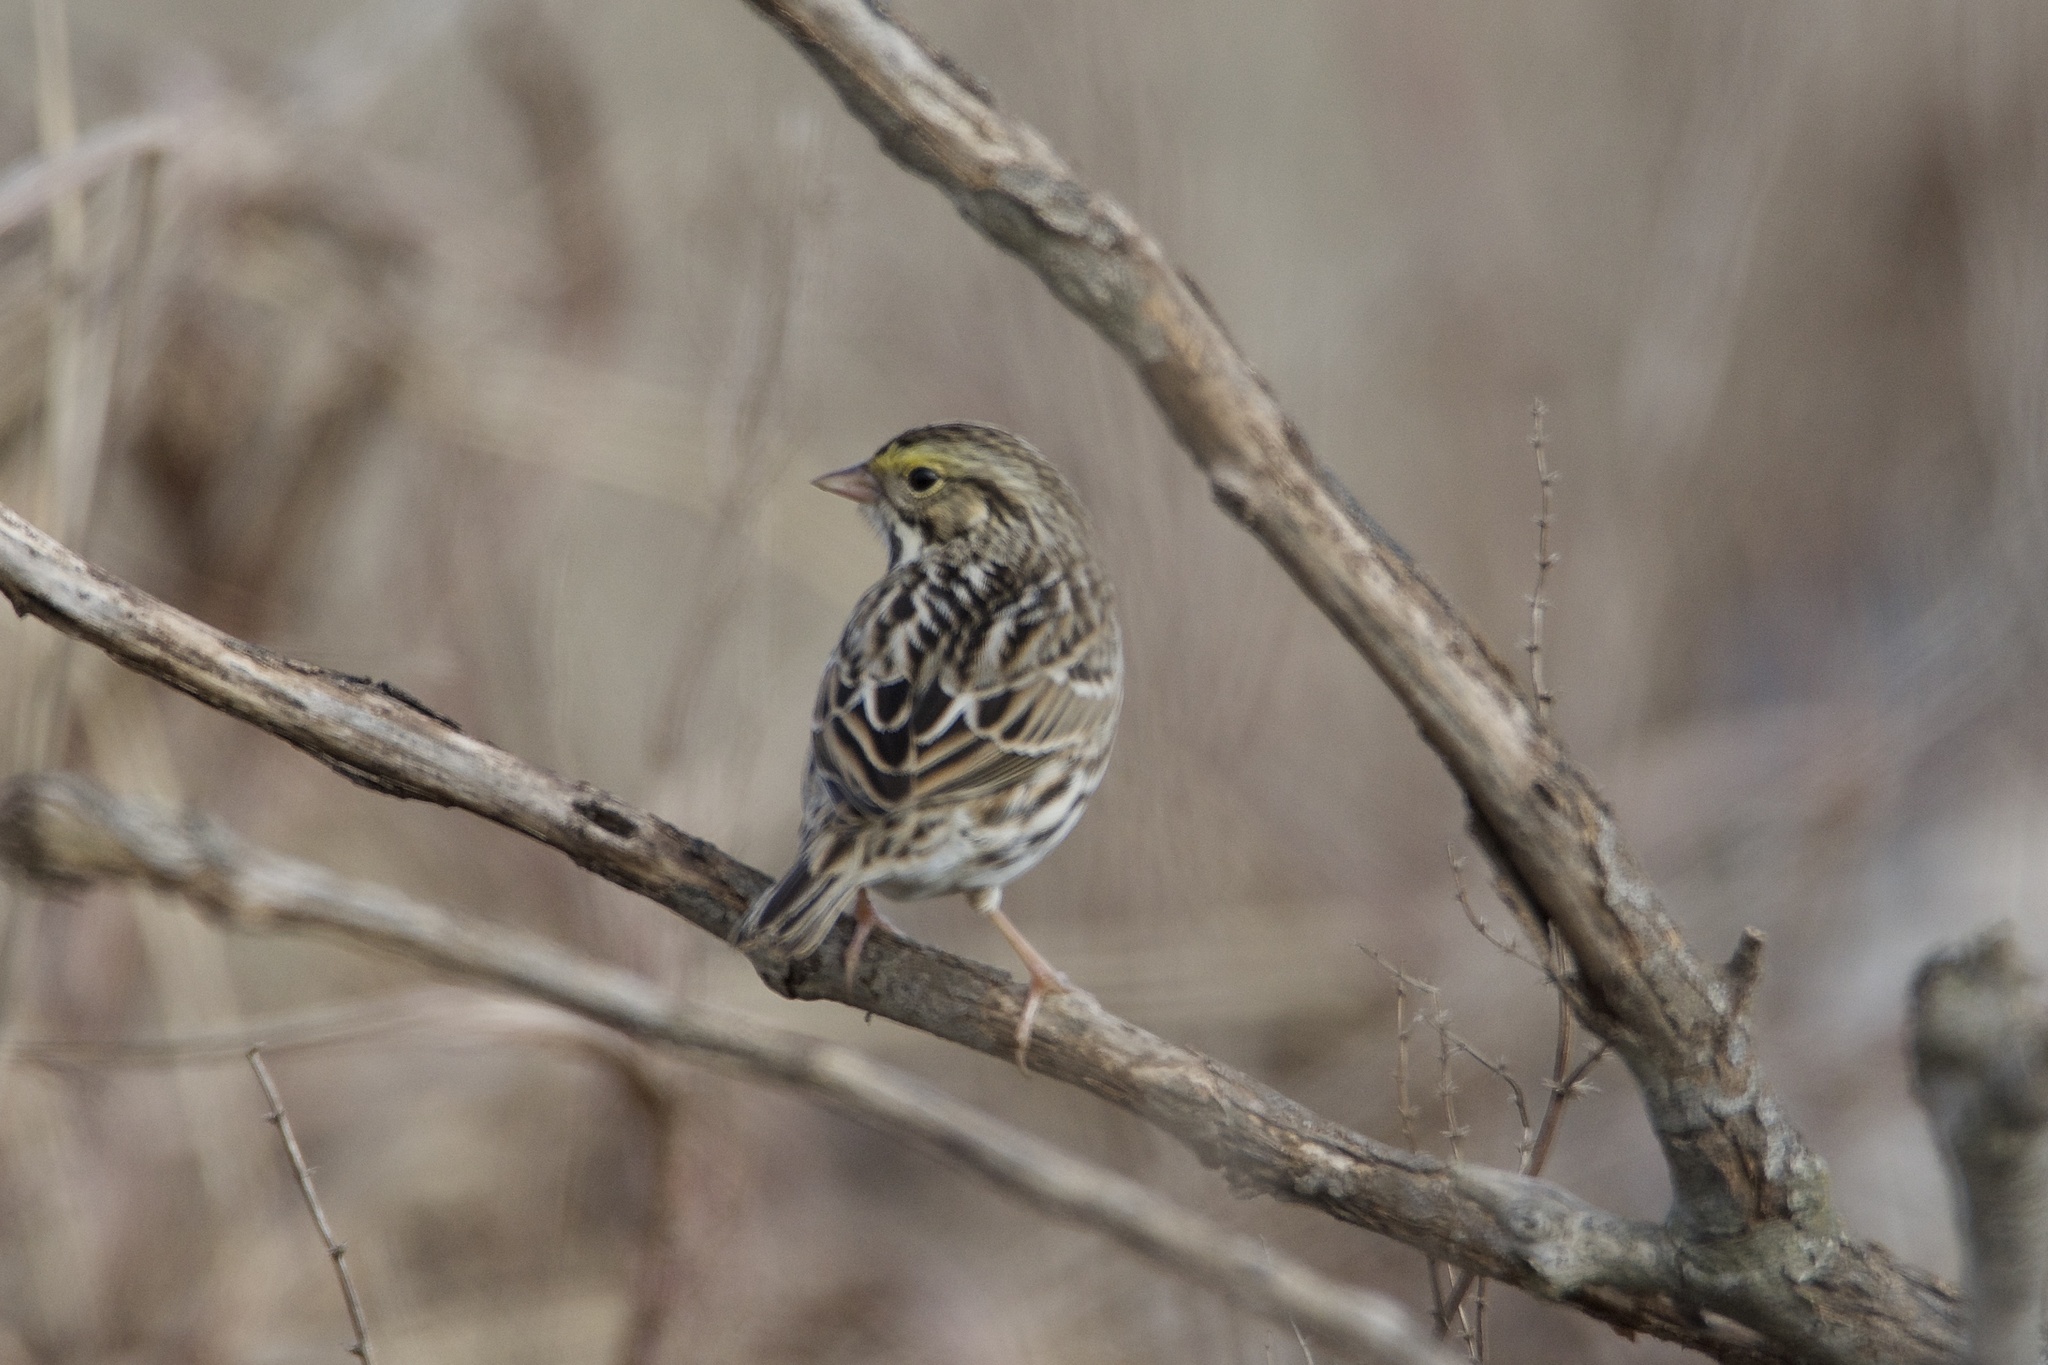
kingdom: Animalia
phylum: Chordata
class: Aves
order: Passeriformes
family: Passerellidae
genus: Passerculus
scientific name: Passerculus sandwichensis
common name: Savannah sparrow
